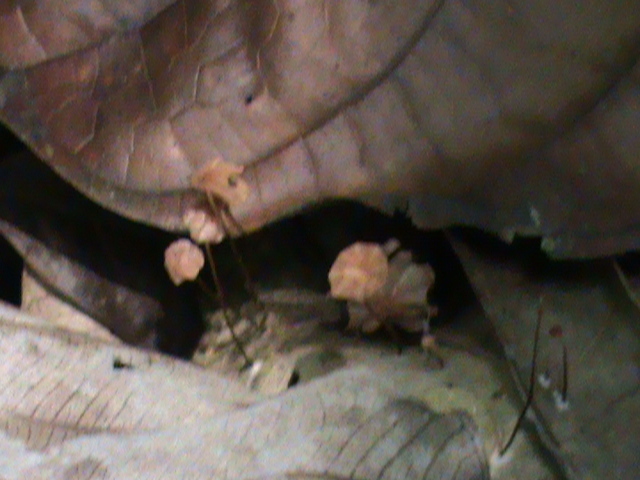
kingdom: Fungi
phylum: Basidiomycota
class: Agaricomycetes
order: Agaricales
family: Marasmiaceae
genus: Marasmius
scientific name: Marasmius siccus
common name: Orange pinwheel
